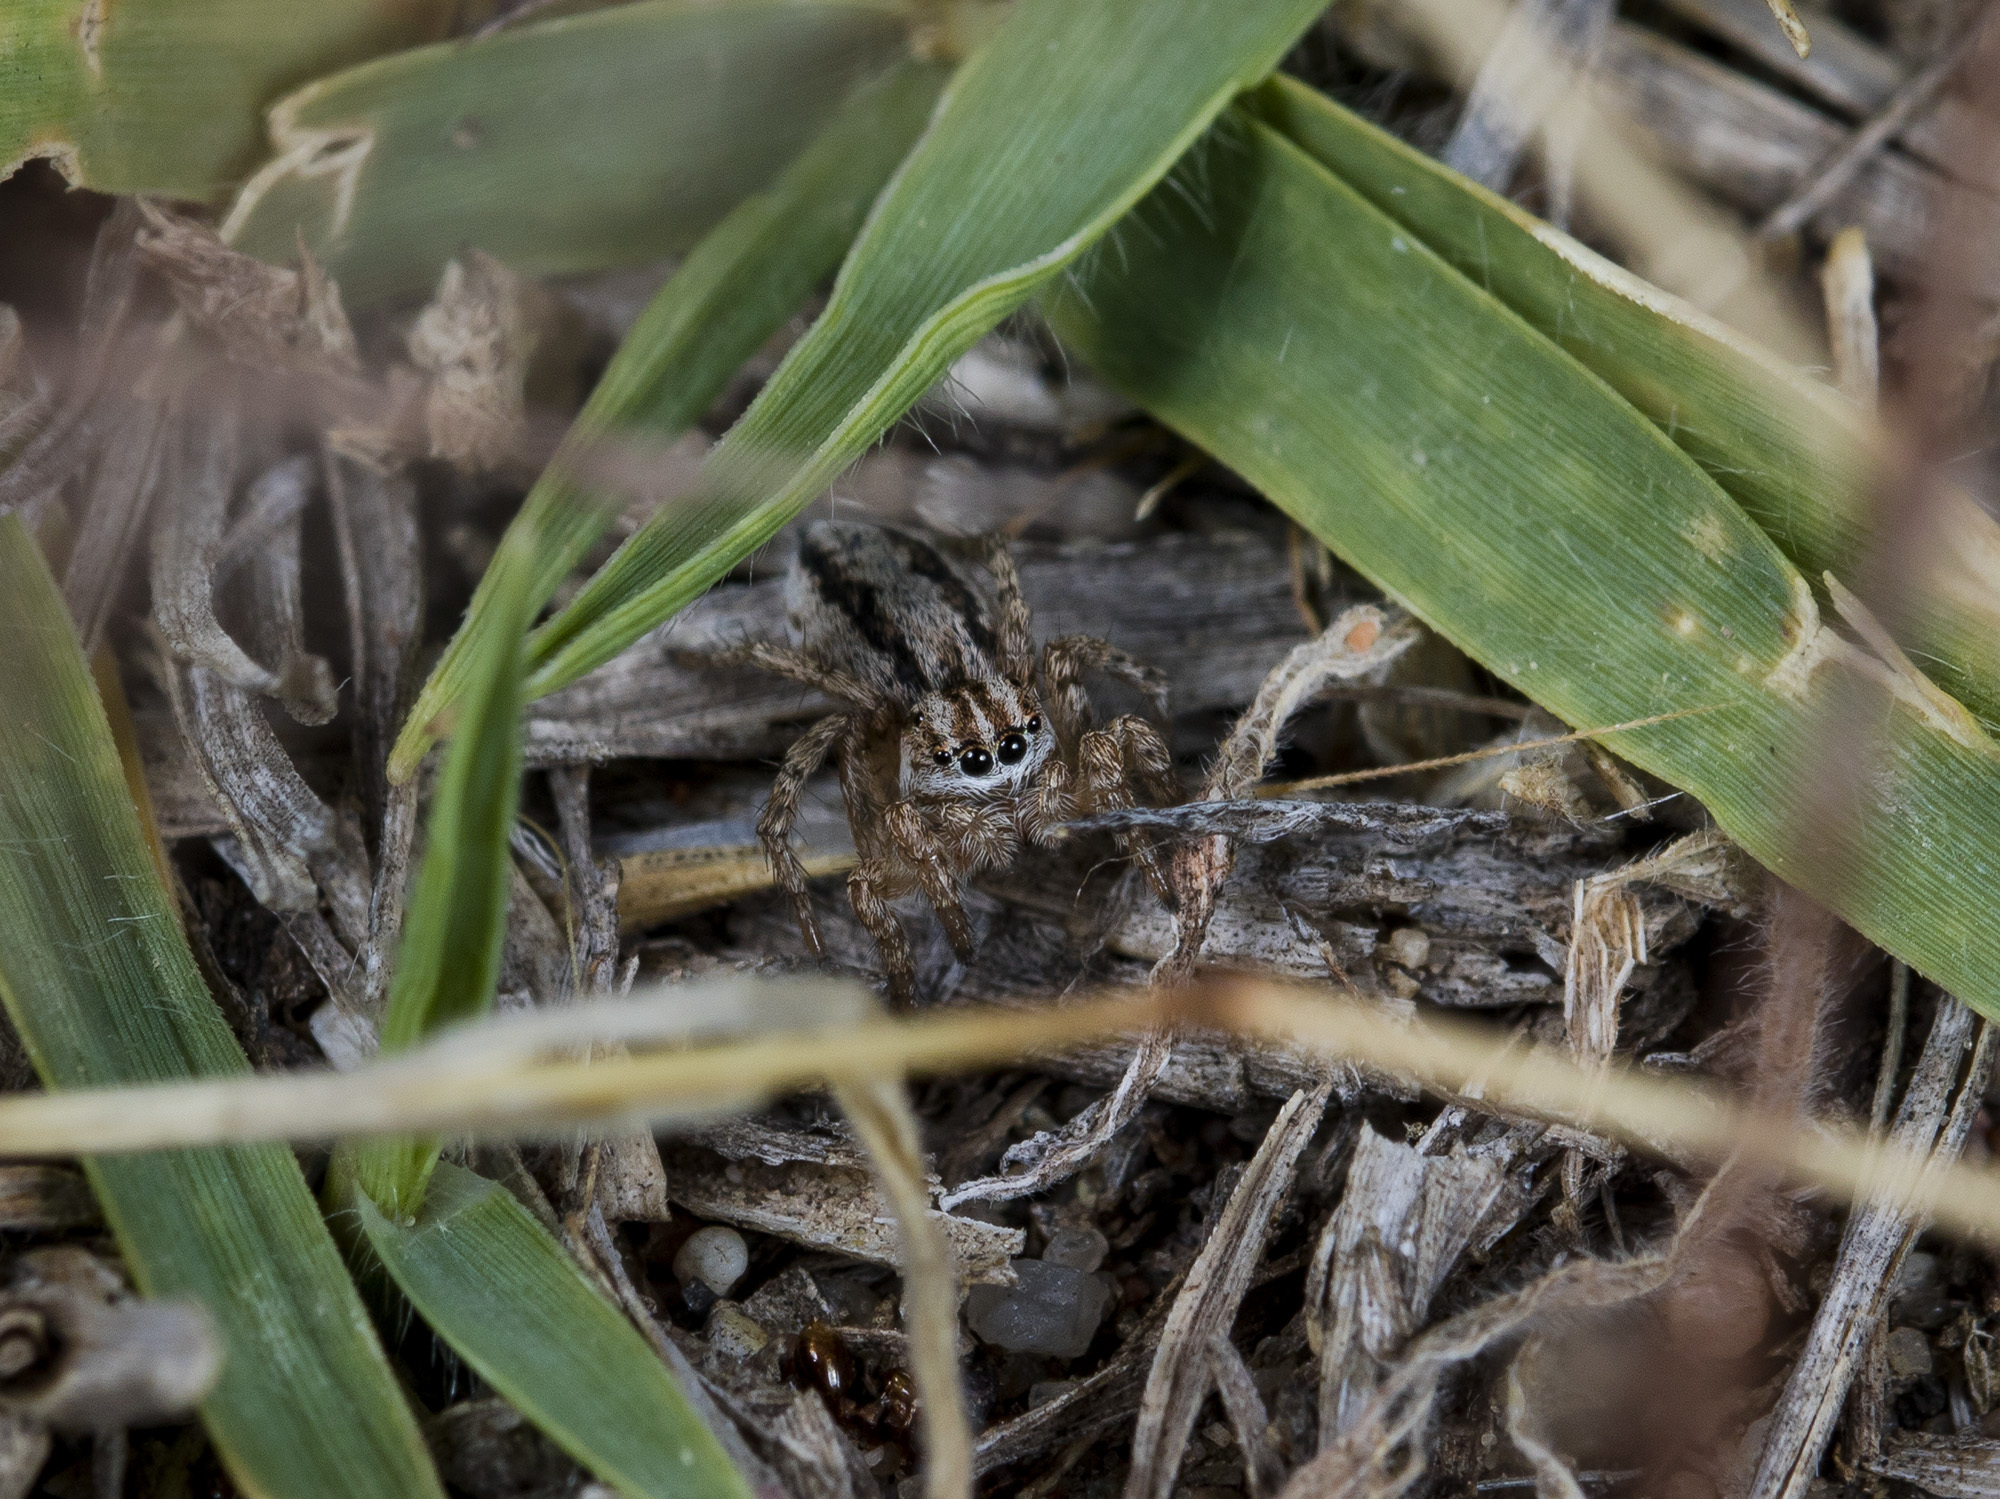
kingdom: Animalia
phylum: Arthropoda
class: Arachnida
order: Araneae
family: Salticidae
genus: Aelurillus
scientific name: Aelurillus m-nigrum
